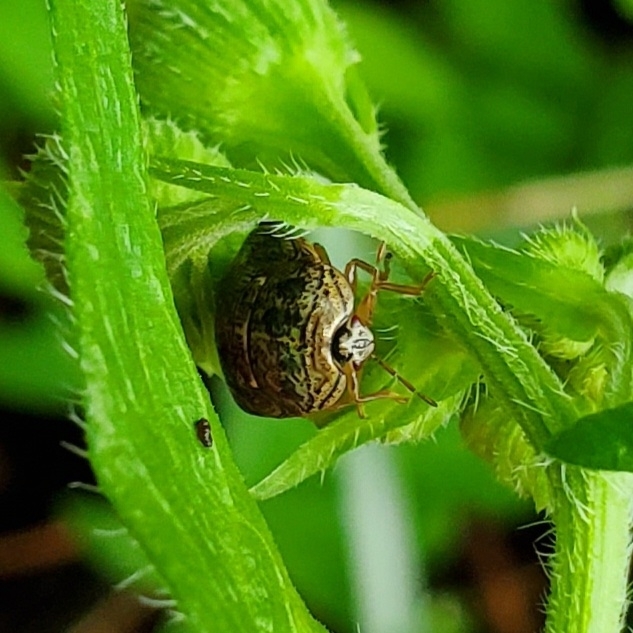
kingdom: Animalia
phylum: Arthropoda
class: Insecta
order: Hemiptera
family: Plataspidae
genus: Megacopta
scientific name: Megacopta cribraria
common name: Bean plataspid
